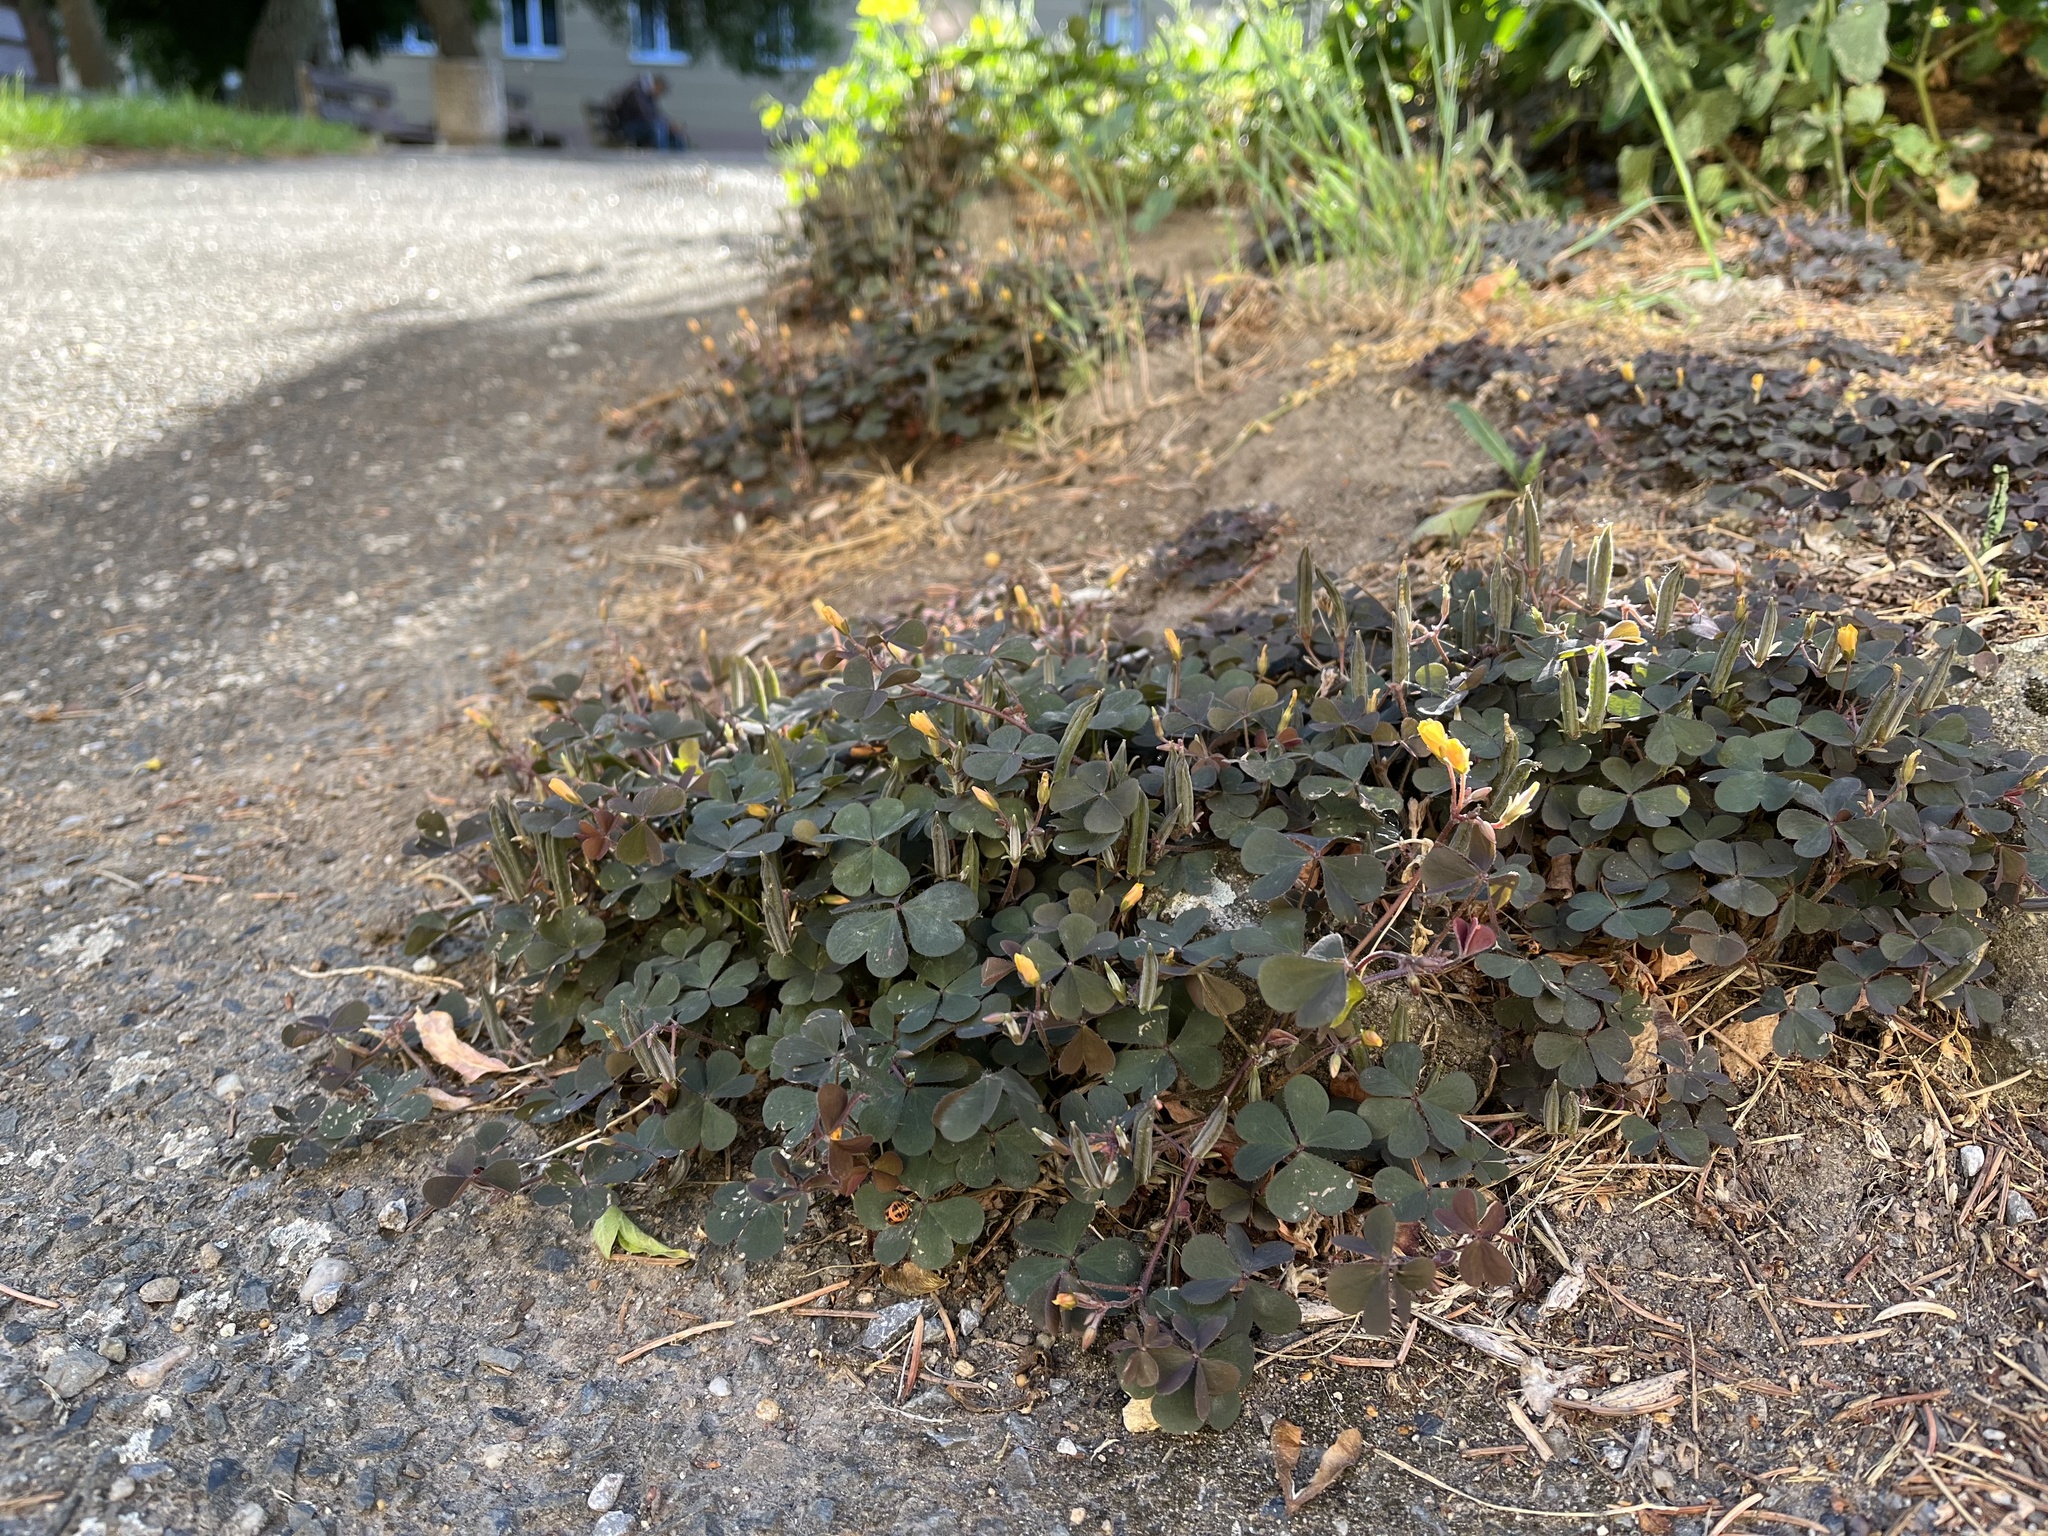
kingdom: Plantae
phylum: Tracheophyta
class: Magnoliopsida
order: Oxalidales
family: Oxalidaceae
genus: Oxalis
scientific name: Oxalis corniculata
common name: Procumbent yellow-sorrel
